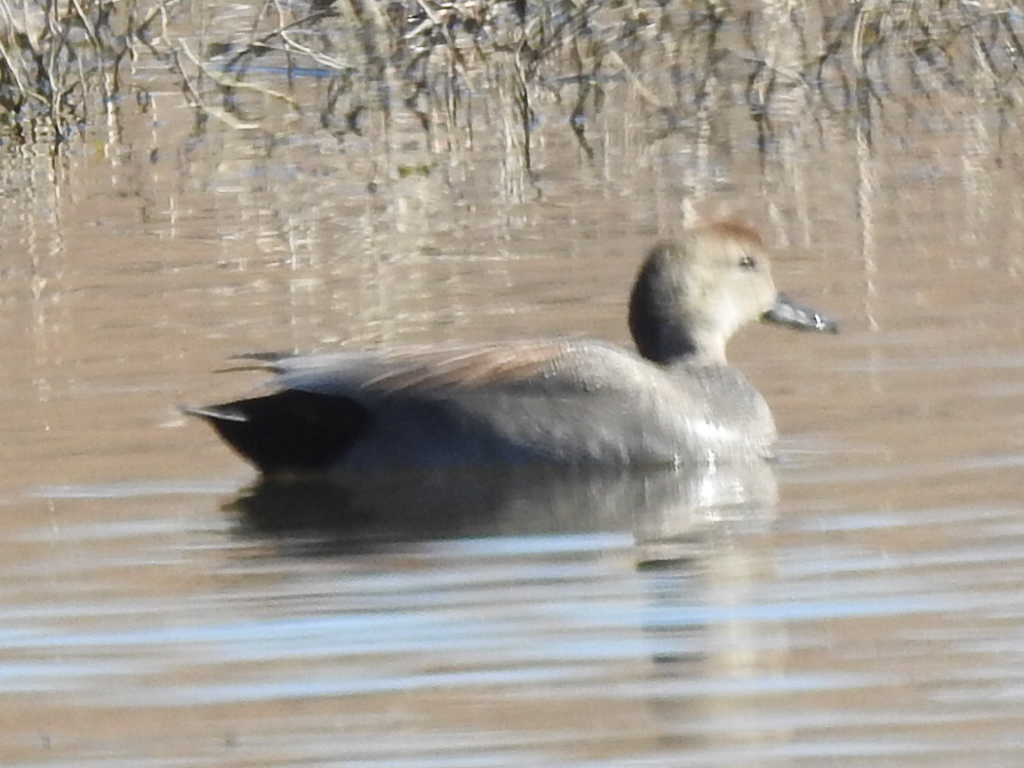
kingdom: Animalia
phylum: Chordata
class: Aves
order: Anseriformes
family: Anatidae
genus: Mareca
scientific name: Mareca strepera
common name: Gadwall
